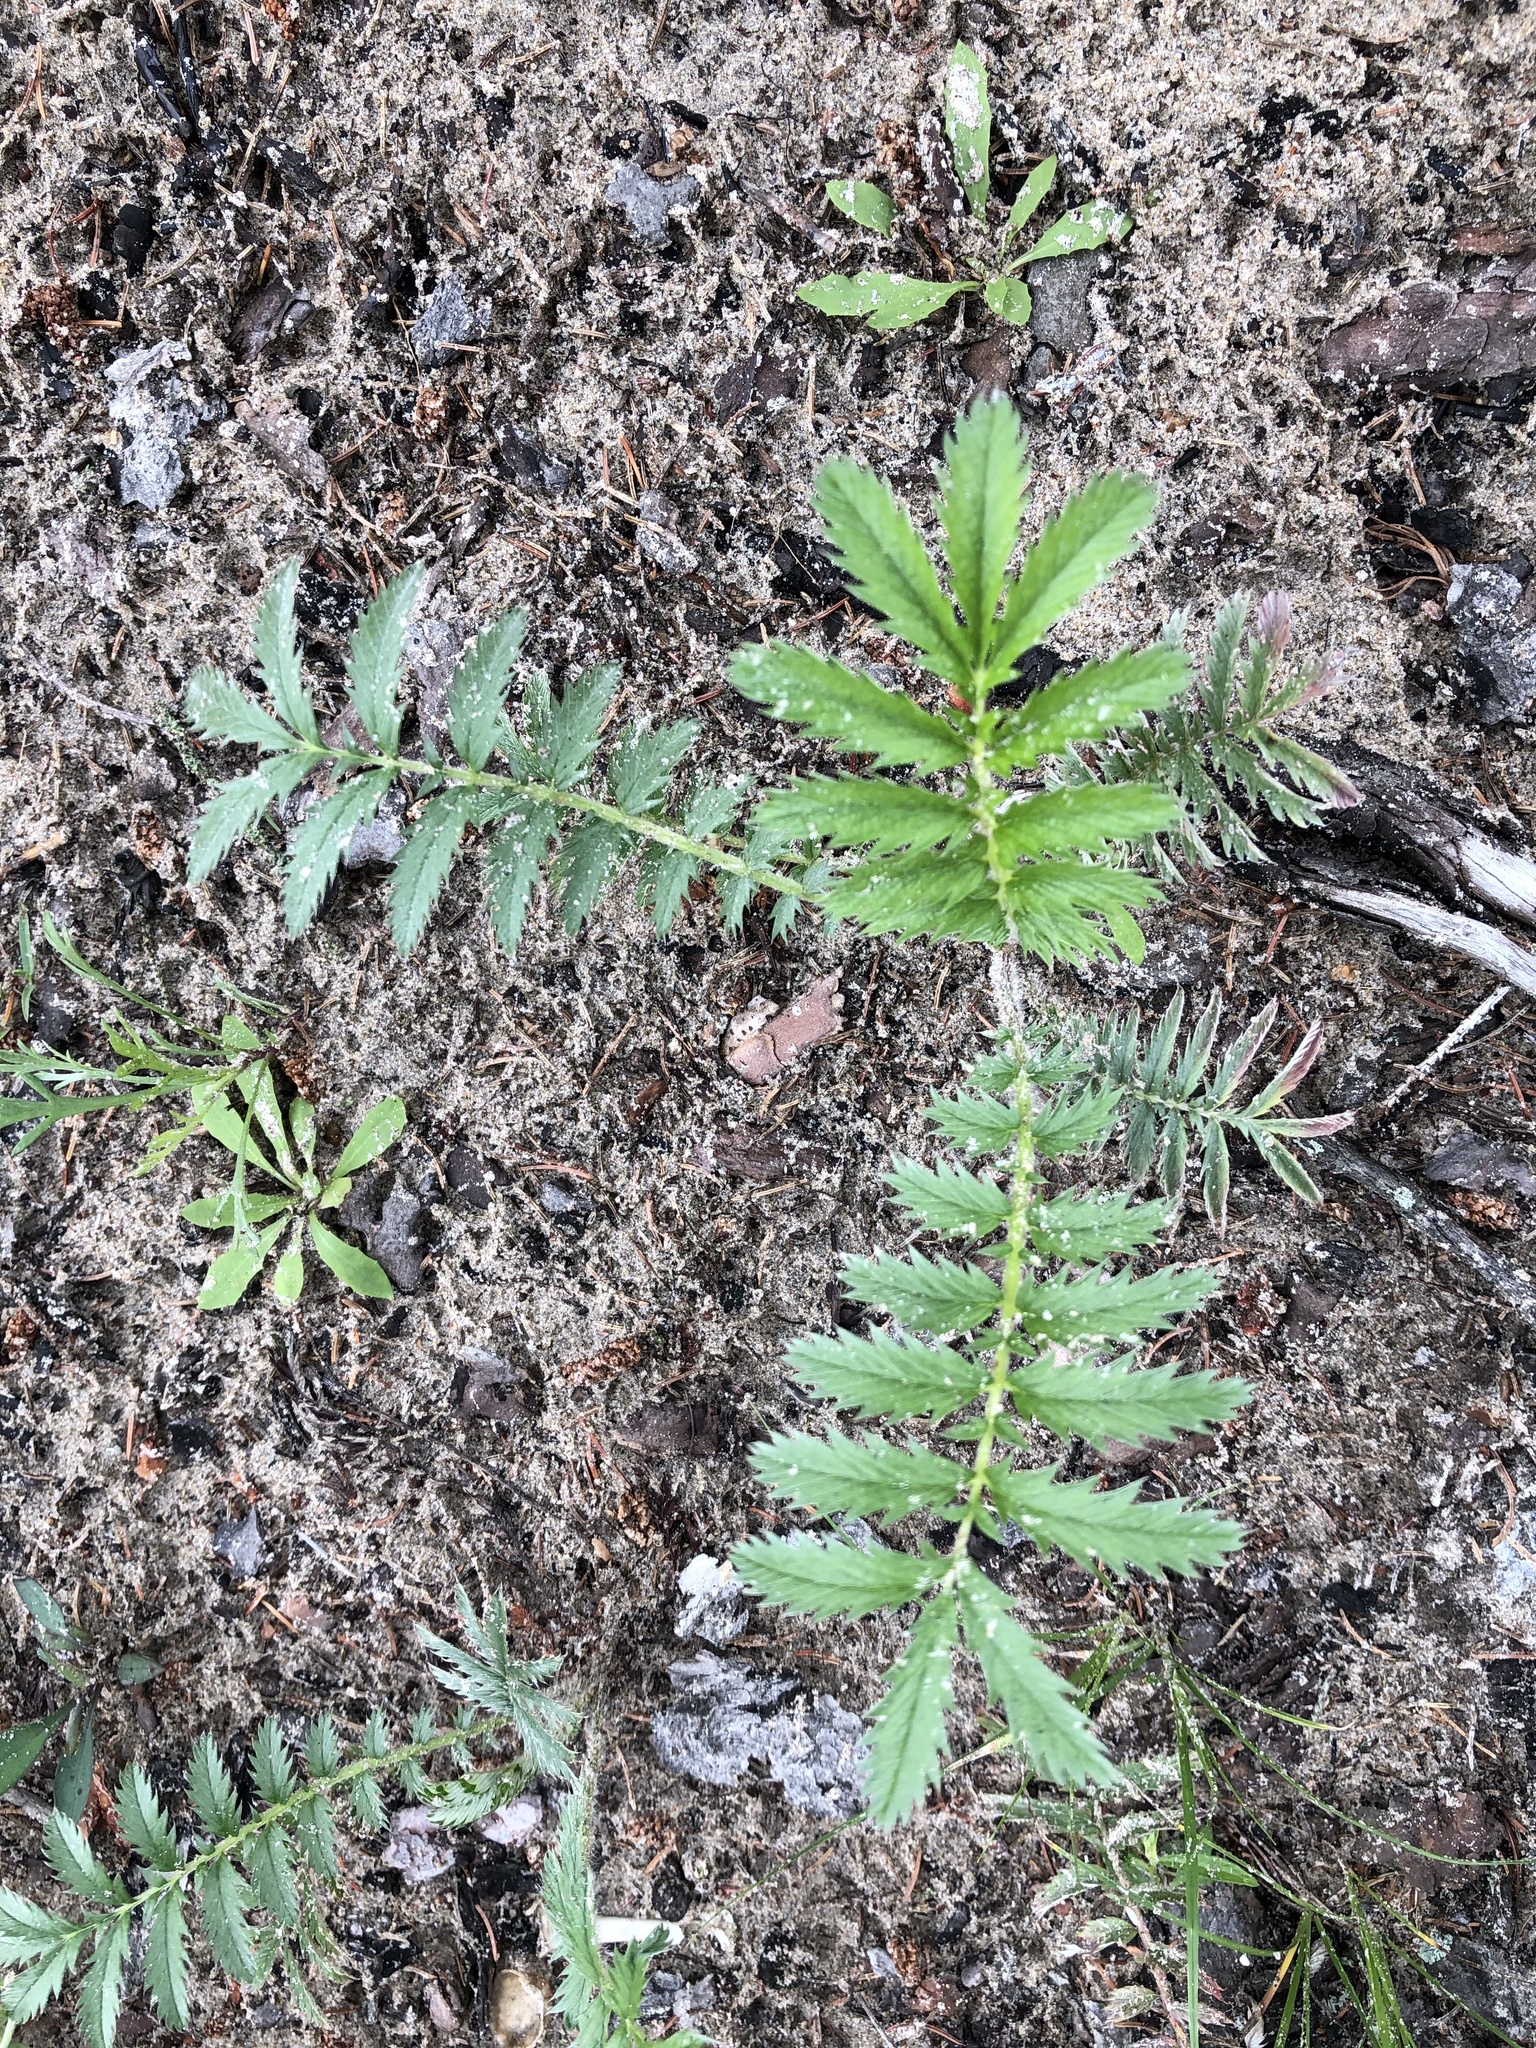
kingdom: Plantae
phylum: Tracheophyta
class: Magnoliopsida
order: Rosales
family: Rosaceae
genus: Argentina
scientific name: Argentina anserina
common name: Common silverweed
